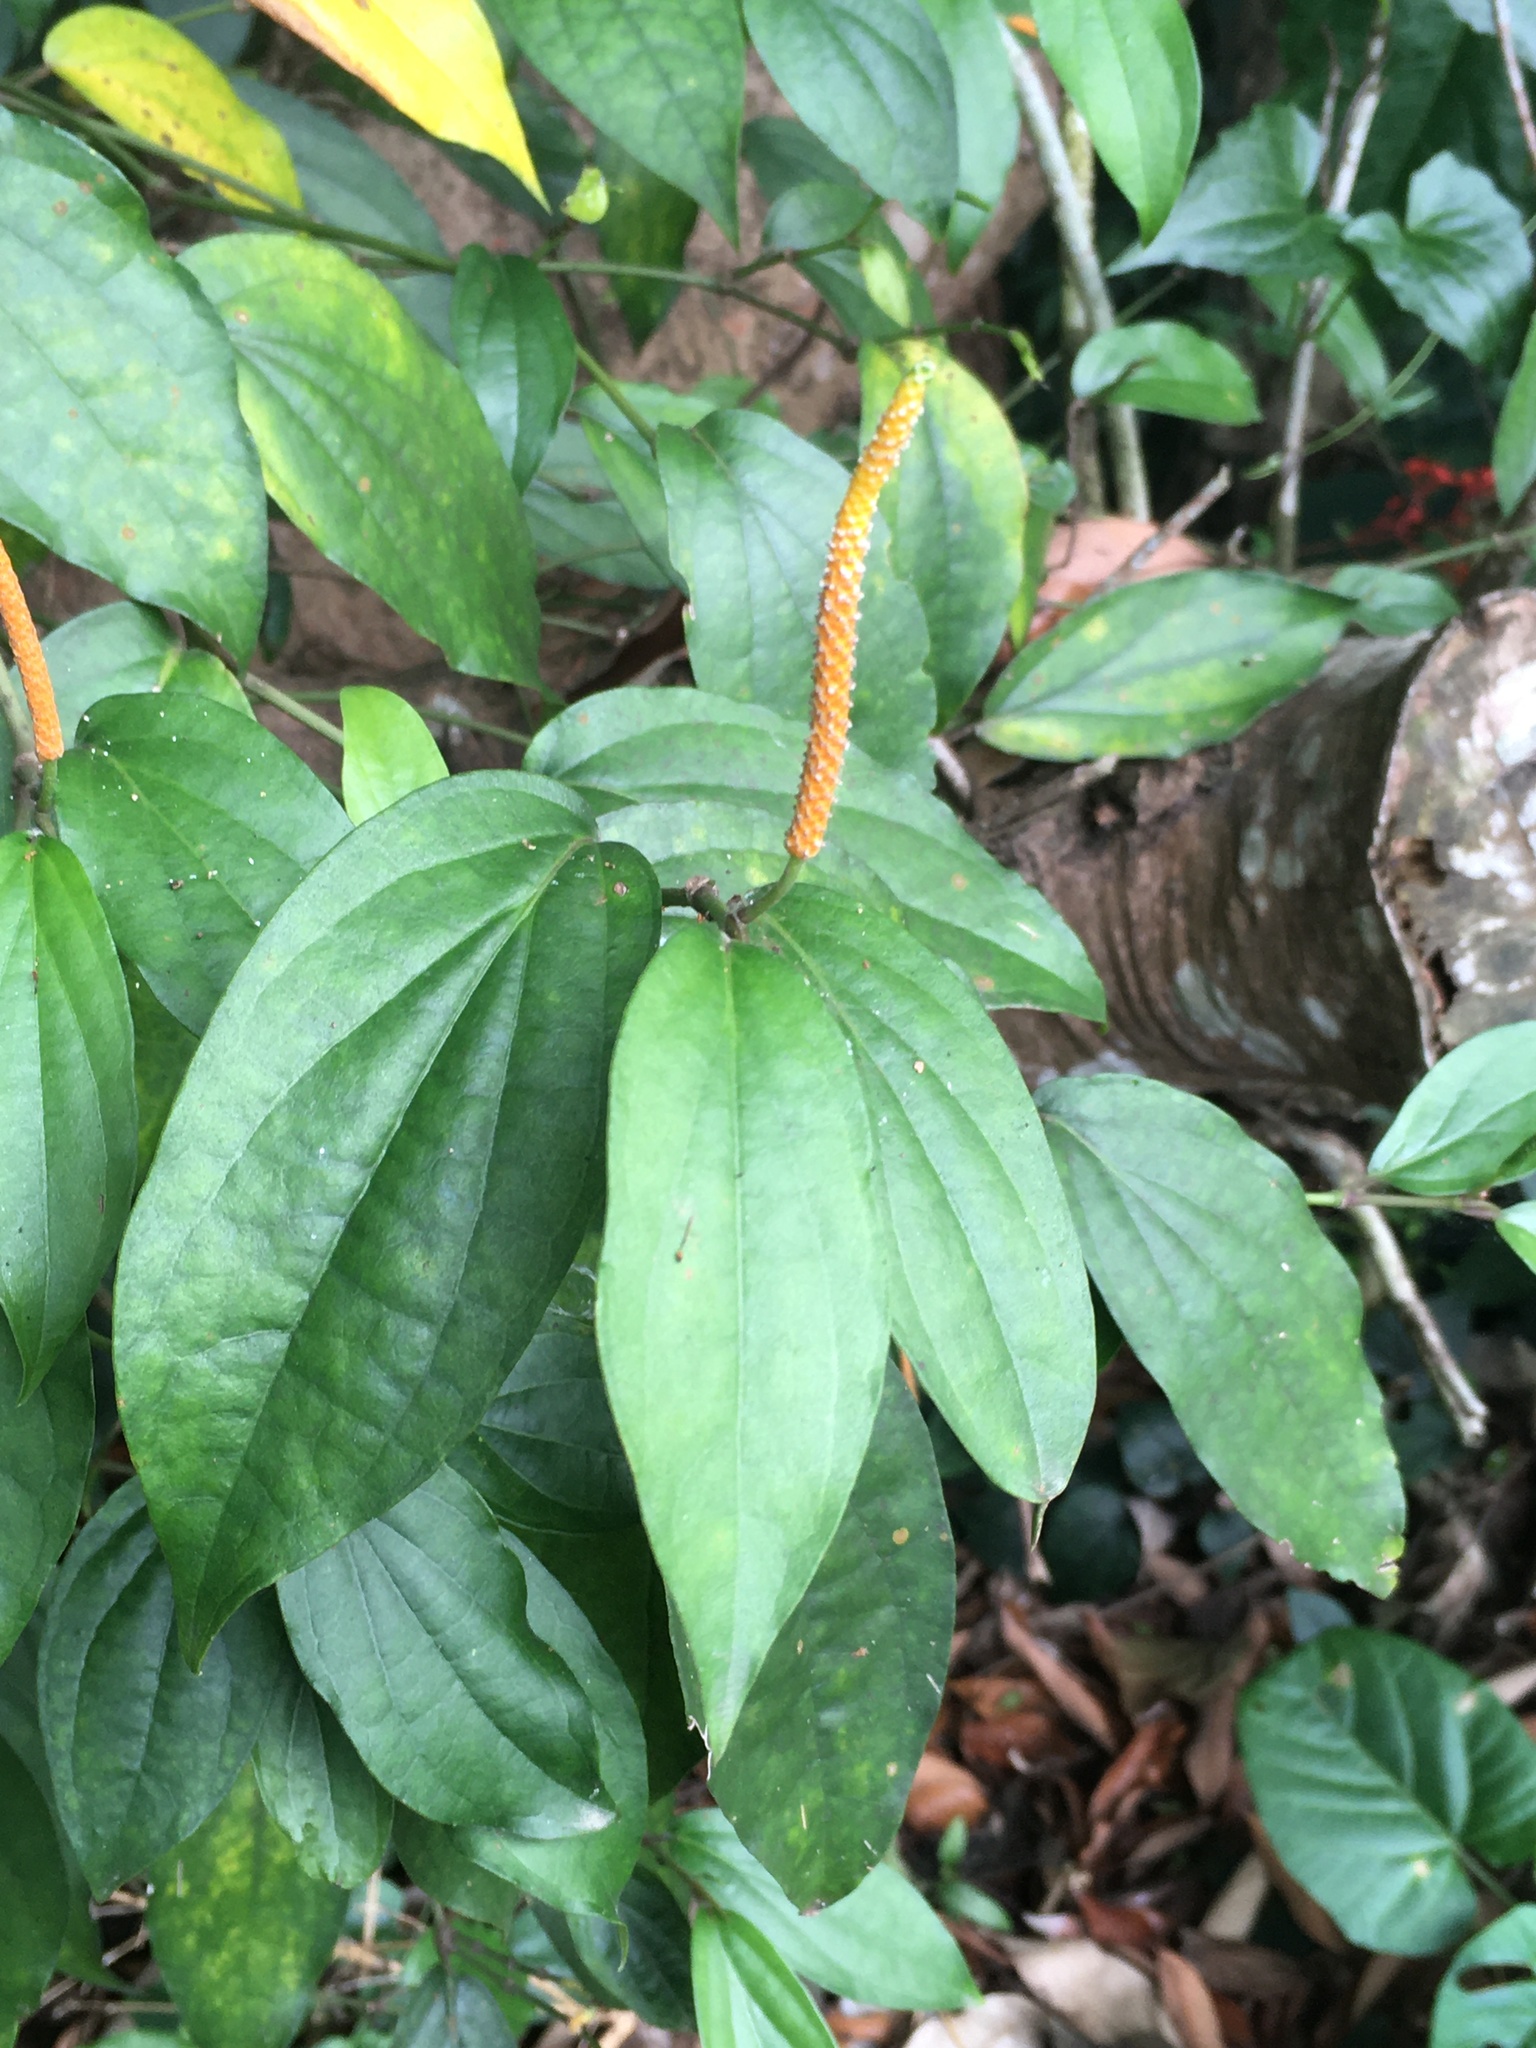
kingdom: Plantae
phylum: Tracheophyta
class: Magnoliopsida
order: Piperales
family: Piperaceae
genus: Piper
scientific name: Piper kadsura
